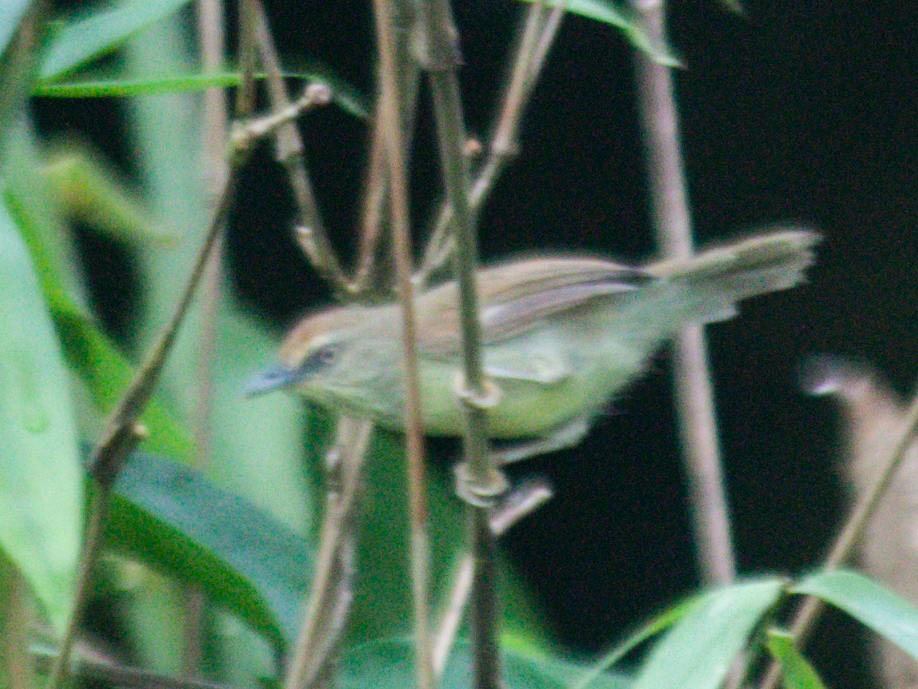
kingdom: Animalia
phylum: Chordata
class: Aves
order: Passeriformes
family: Timaliidae
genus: Macronus
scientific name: Macronus gularis
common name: Striped tit-babbler
